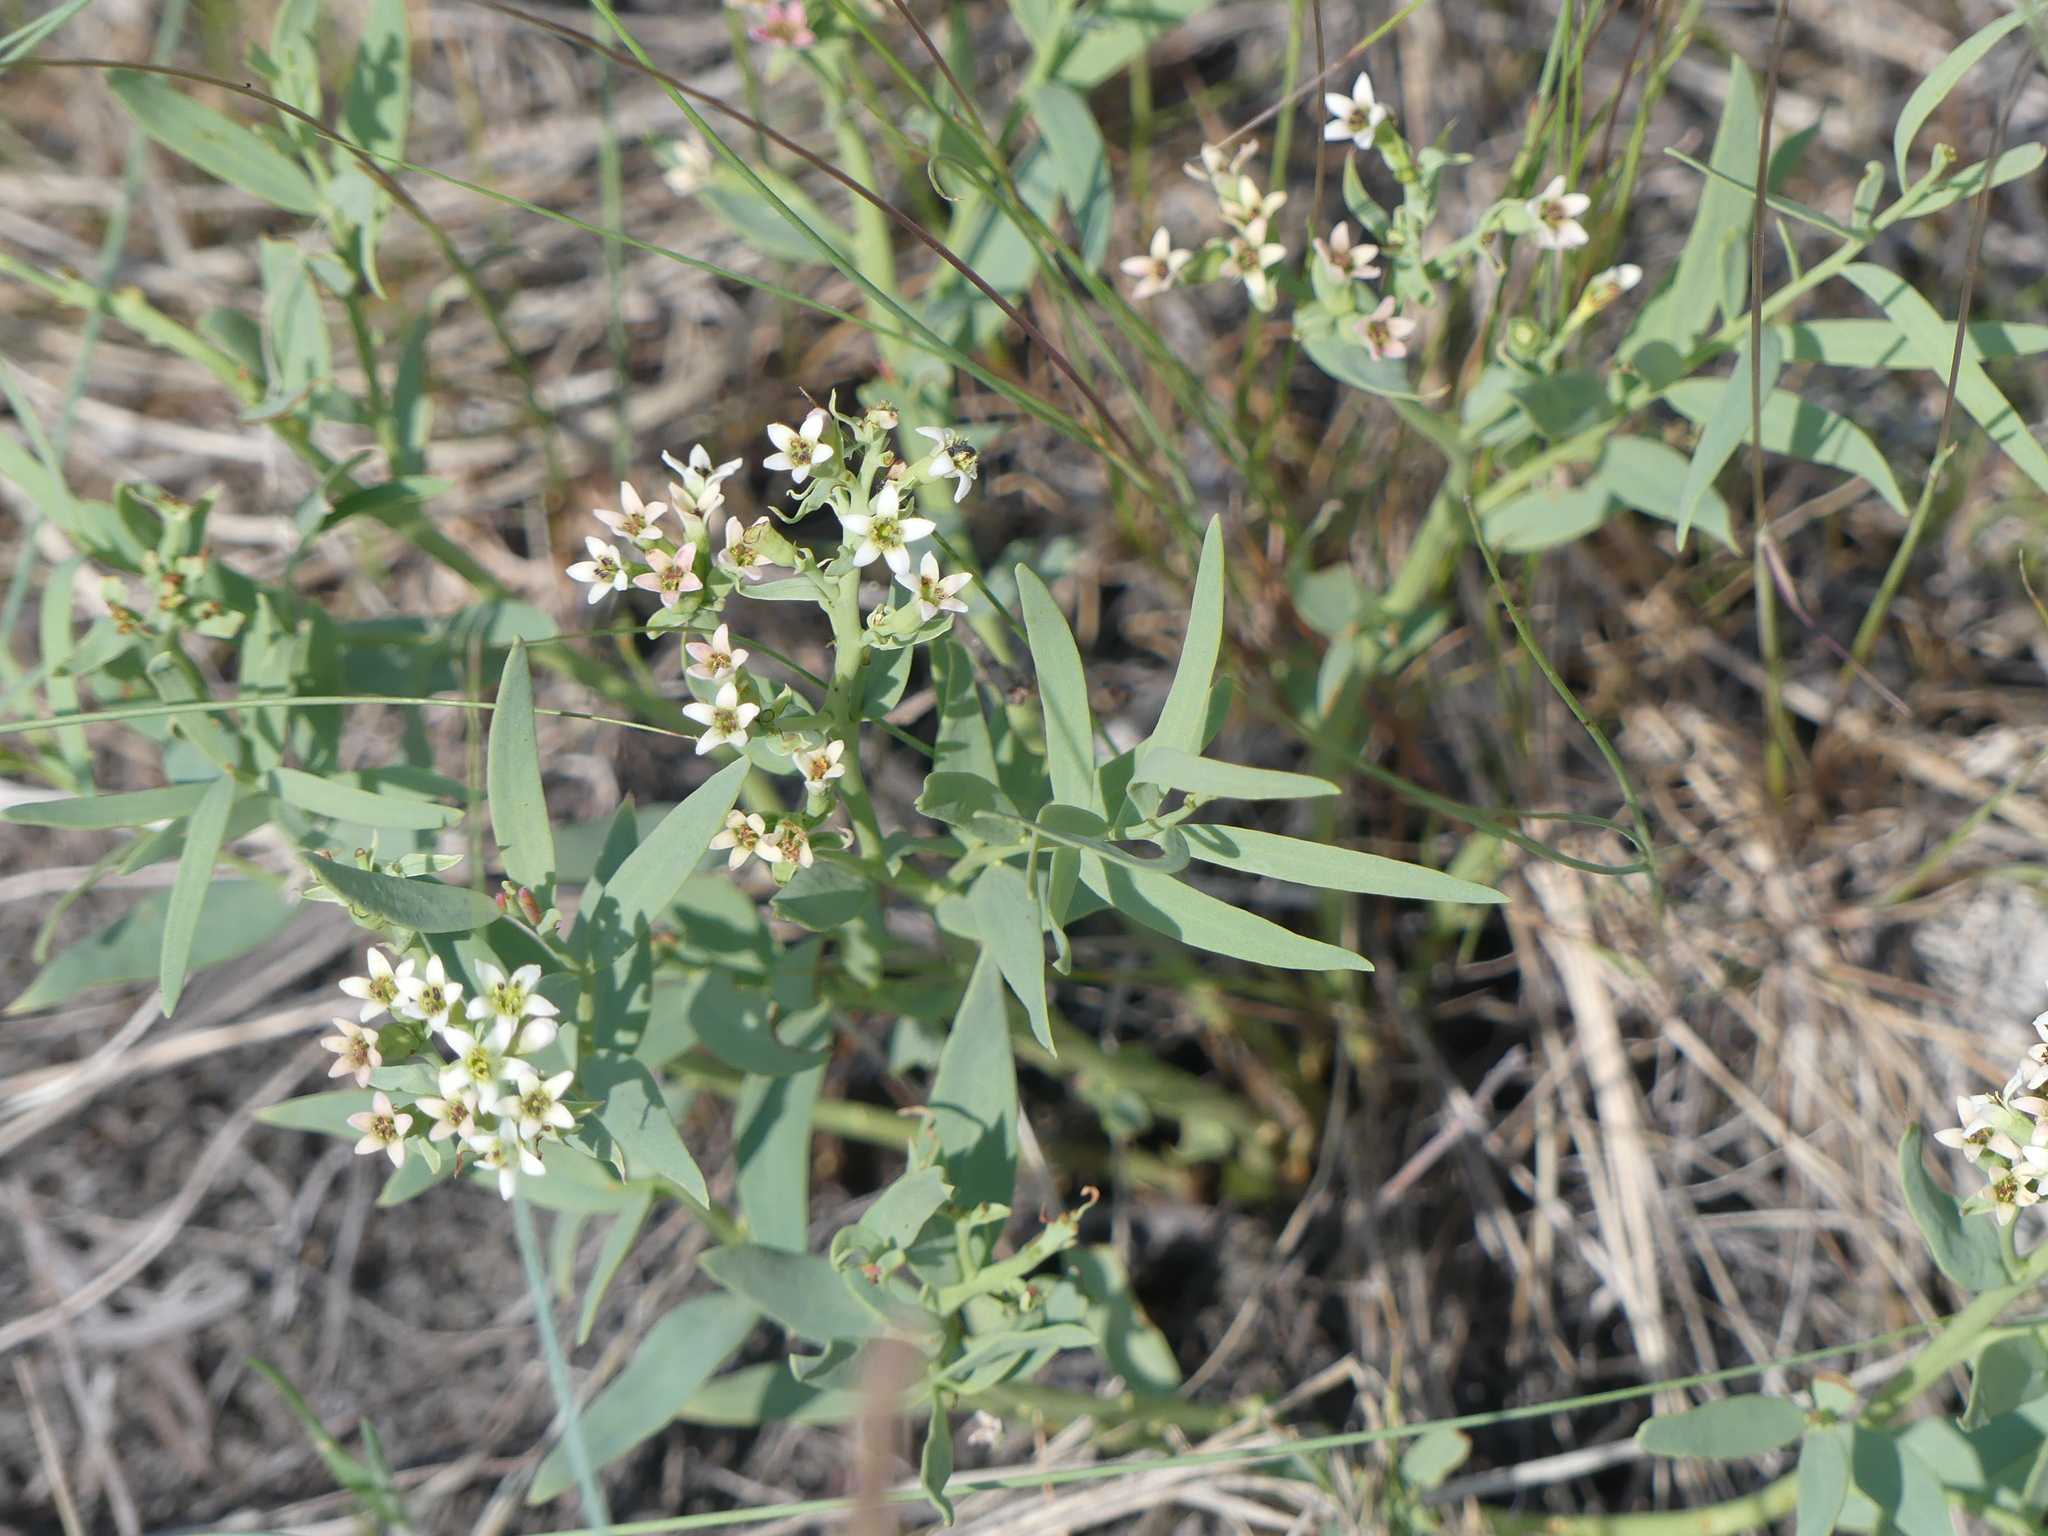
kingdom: Plantae
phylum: Tracheophyta
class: Magnoliopsida
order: Santalales
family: Comandraceae
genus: Comandra
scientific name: Comandra umbellata
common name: Bastard toadflax
